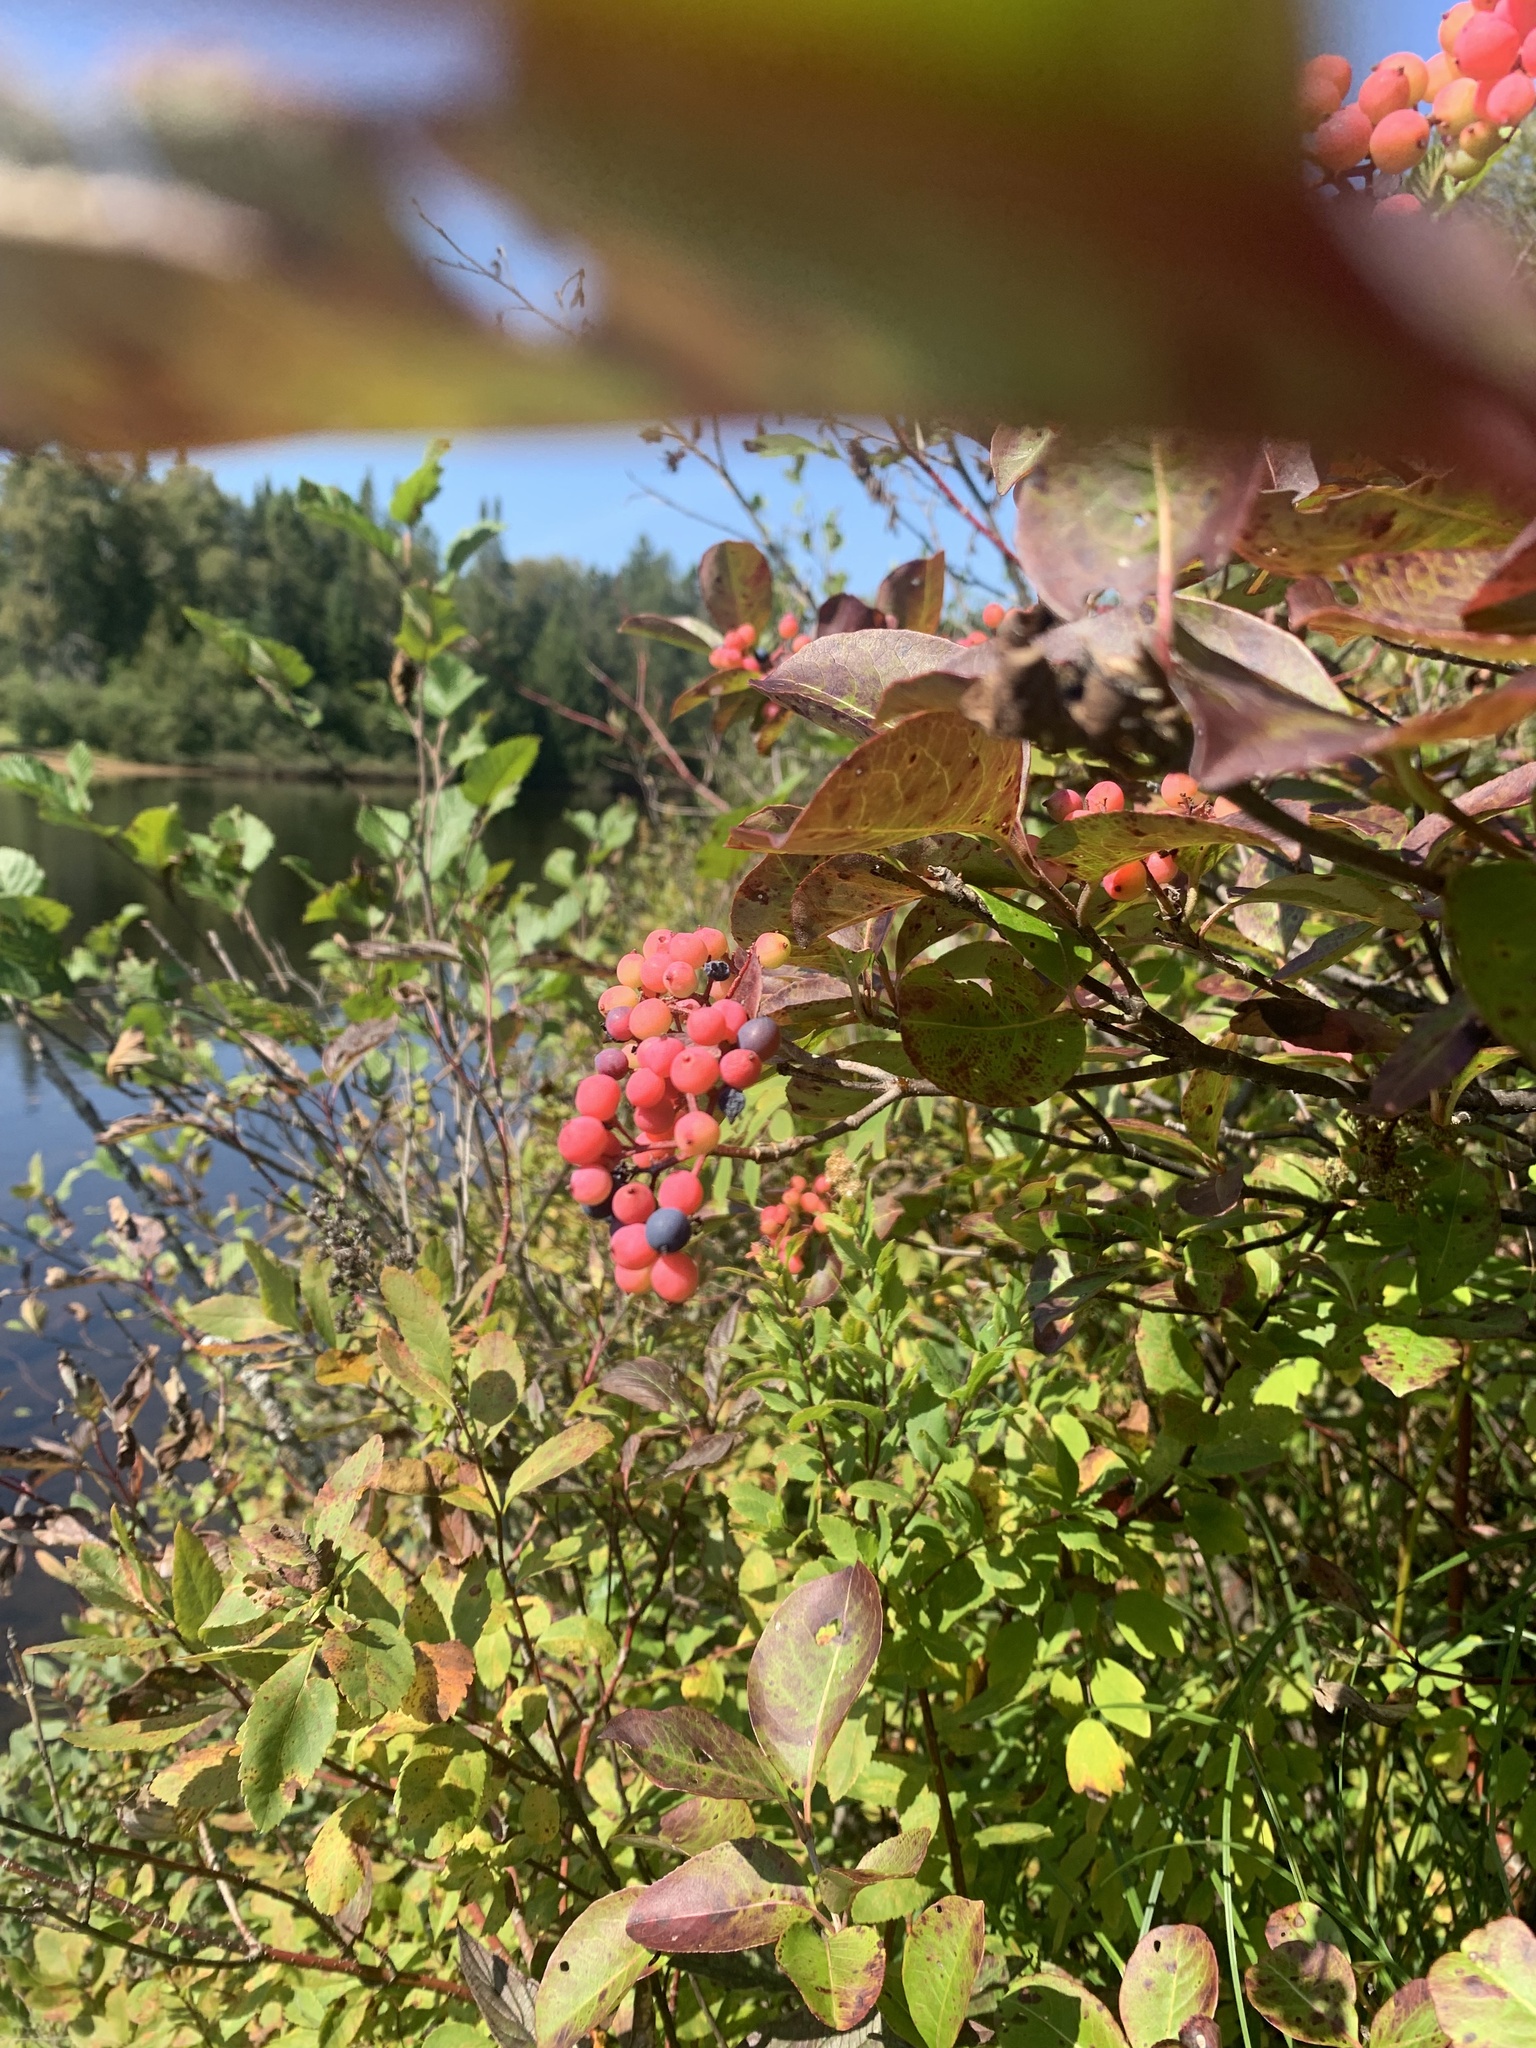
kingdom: Plantae
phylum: Tracheophyta
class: Magnoliopsida
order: Dipsacales
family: Viburnaceae
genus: Viburnum
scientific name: Viburnum cassinoides
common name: Swamp haw
